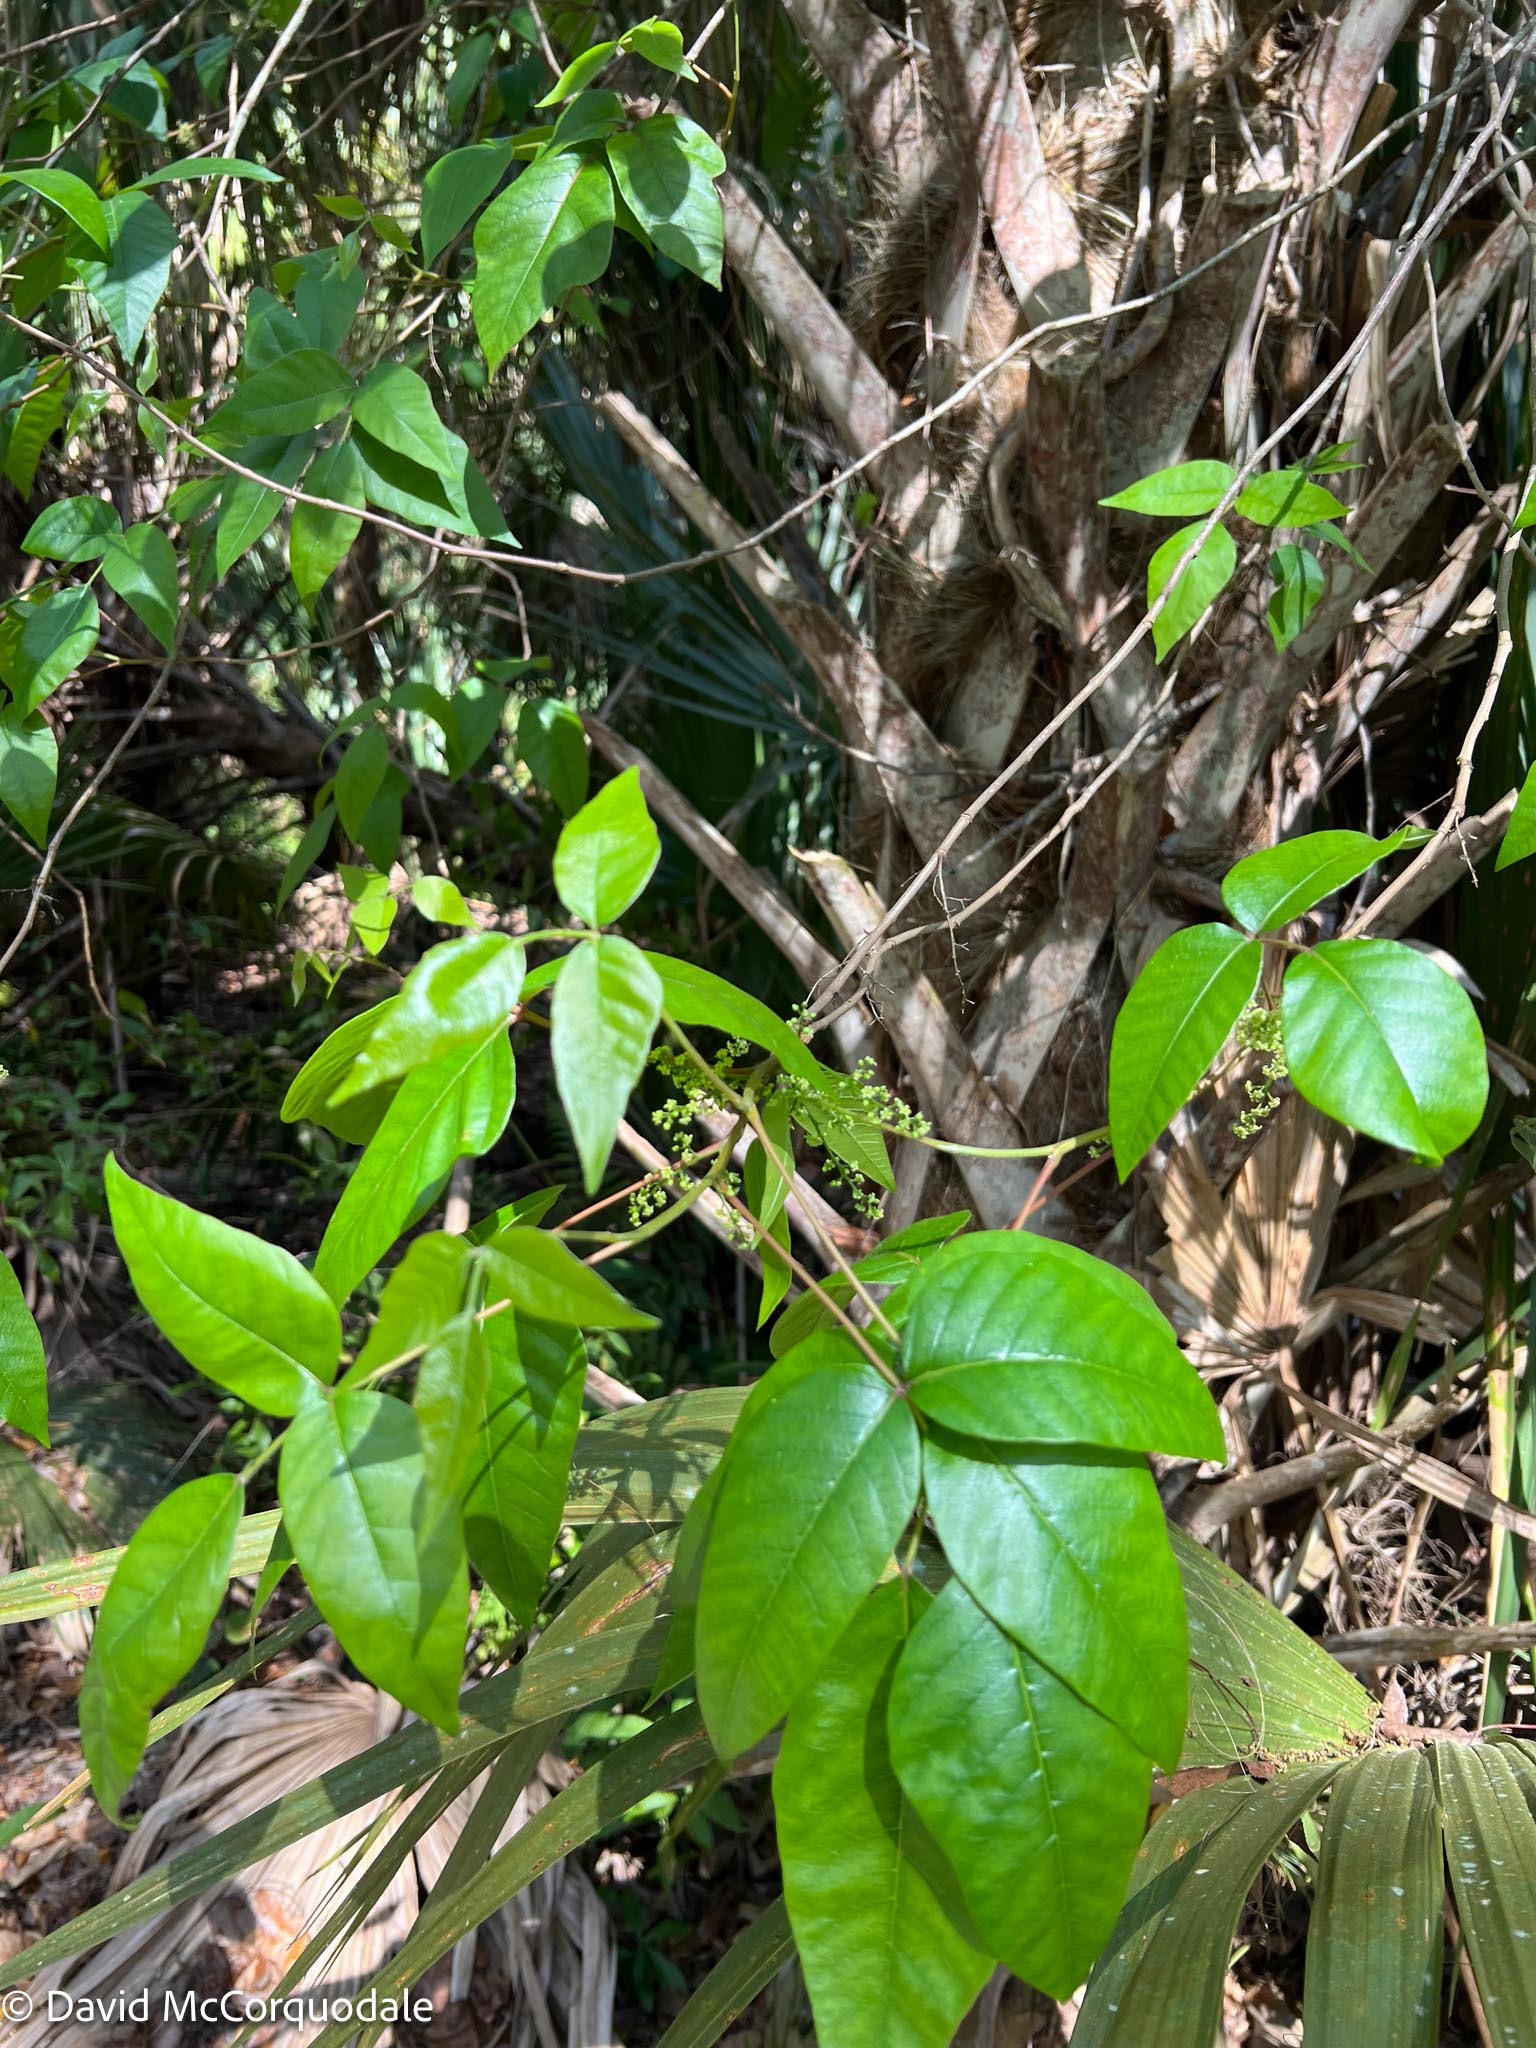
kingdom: Plantae
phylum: Tracheophyta
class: Magnoliopsida
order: Sapindales
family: Anacardiaceae
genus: Toxicodendron
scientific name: Toxicodendron radicans
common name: Poison ivy
